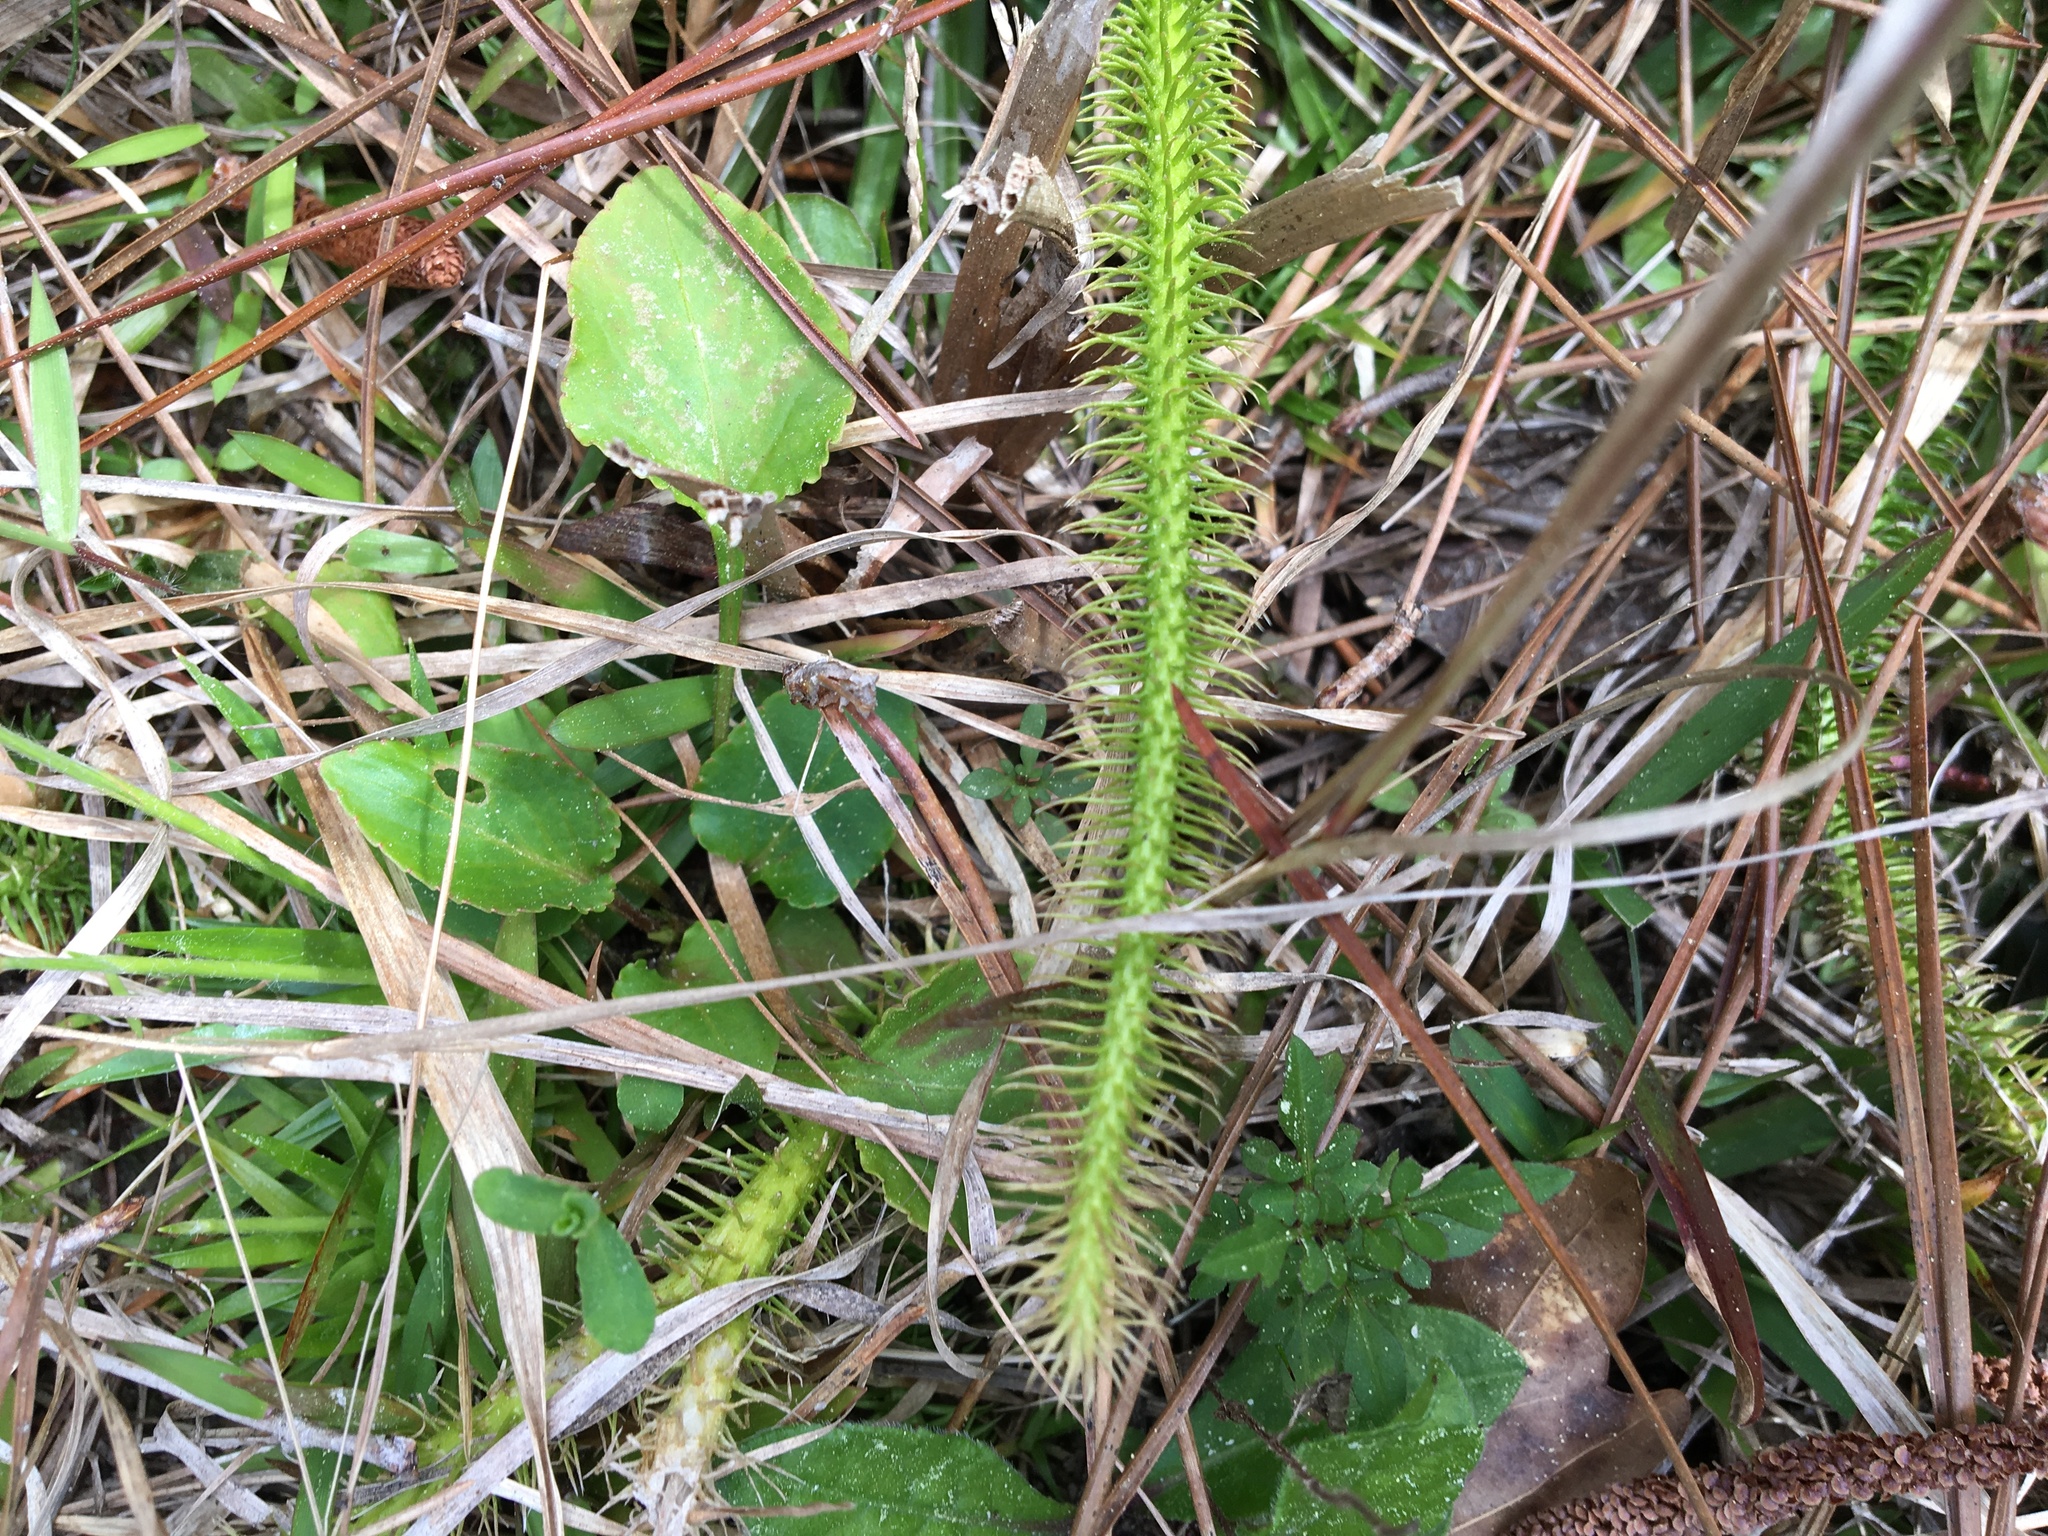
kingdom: Plantae
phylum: Tracheophyta
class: Lycopodiopsida
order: Lycopodiales
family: Lycopodiaceae
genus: Lycopodiella
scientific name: Lycopodiella alopecuroides
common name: Foxtail clubmoss
